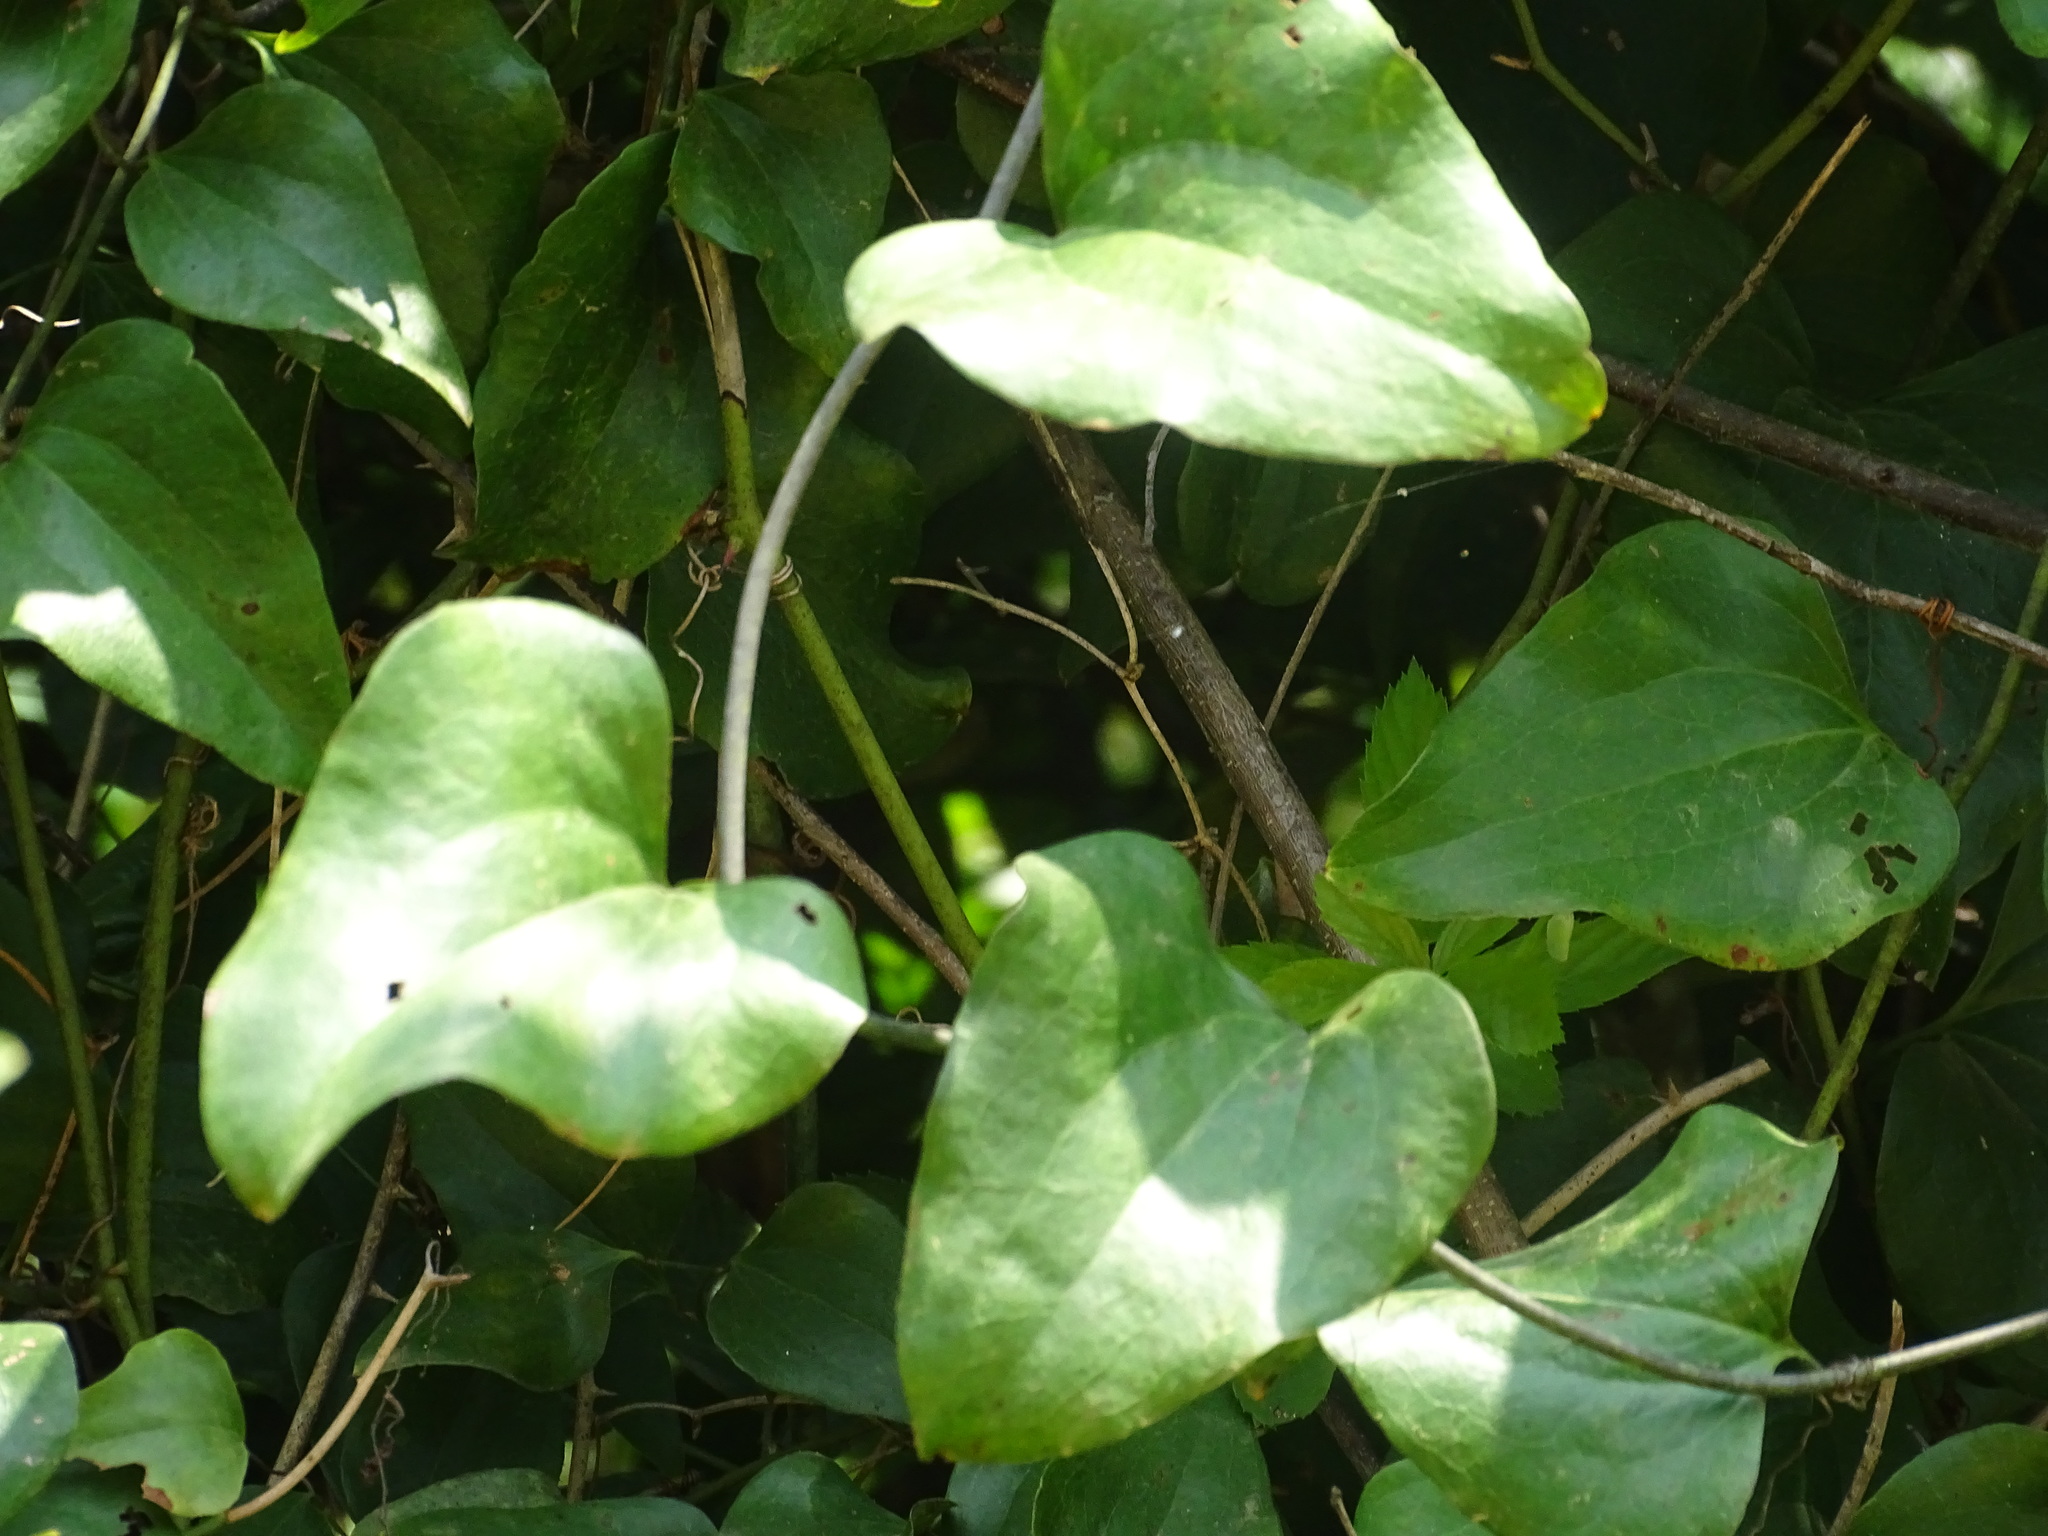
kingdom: Plantae
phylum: Tracheophyta
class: Liliopsida
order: Liliales
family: Smilacaceae
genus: Smilax
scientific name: Smilax glauca
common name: Cat greenbrier
